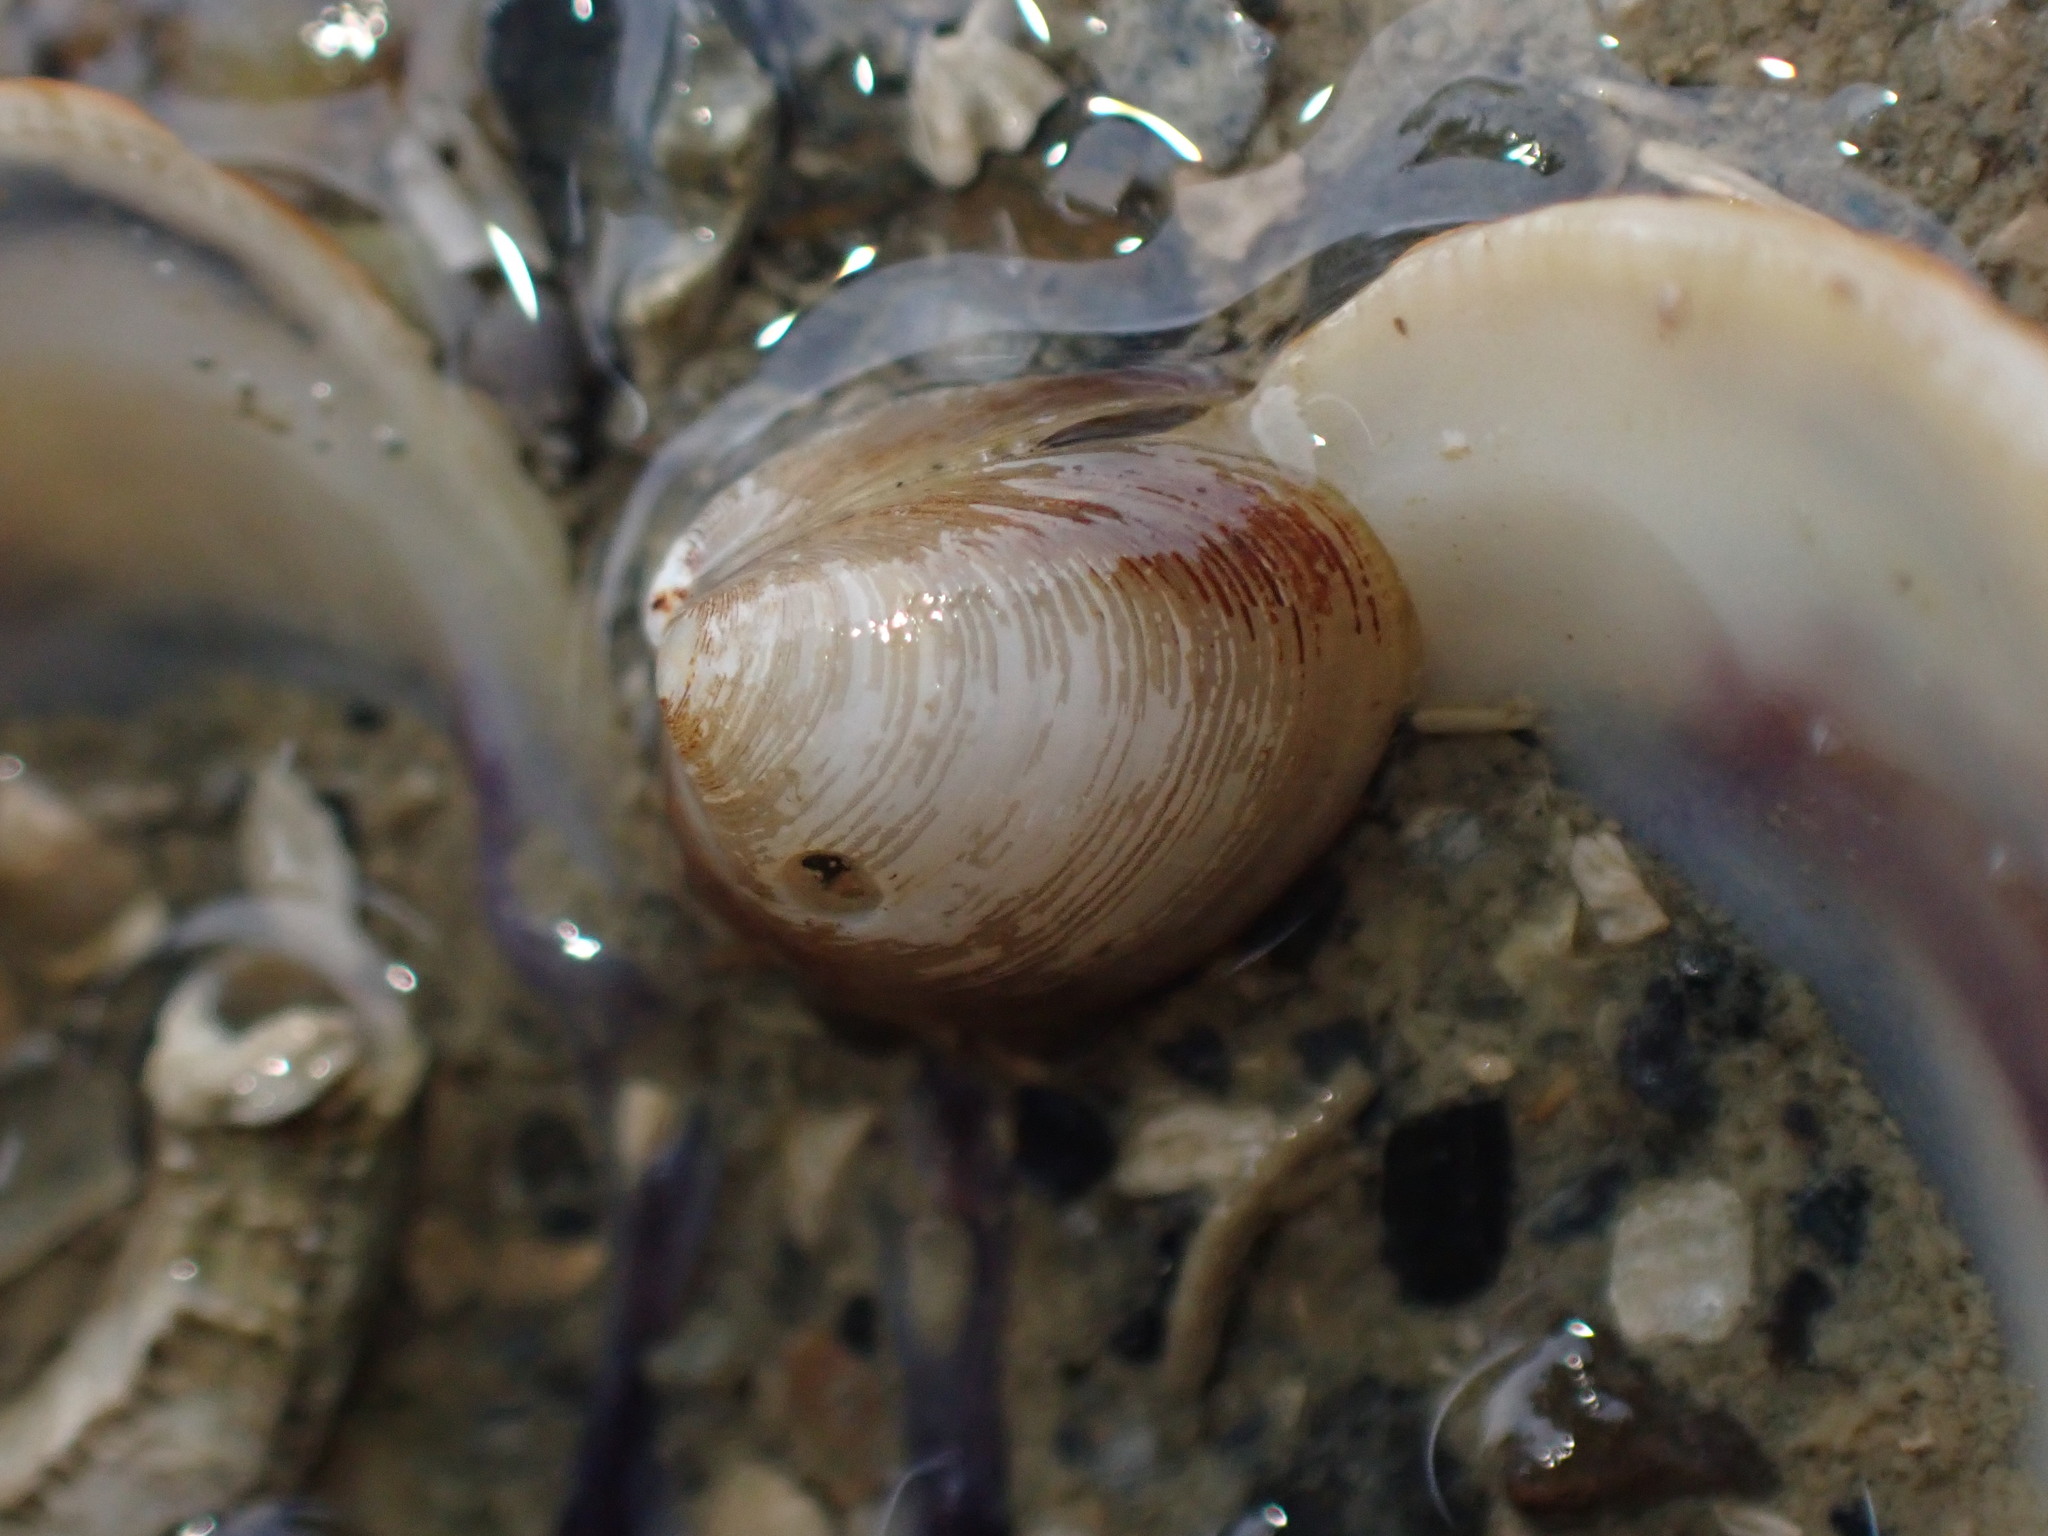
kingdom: Animalia
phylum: Mollusca
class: Bivalvia
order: Nuculida
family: Nuculidae
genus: Linucula
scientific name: Linucula hartvigiana
